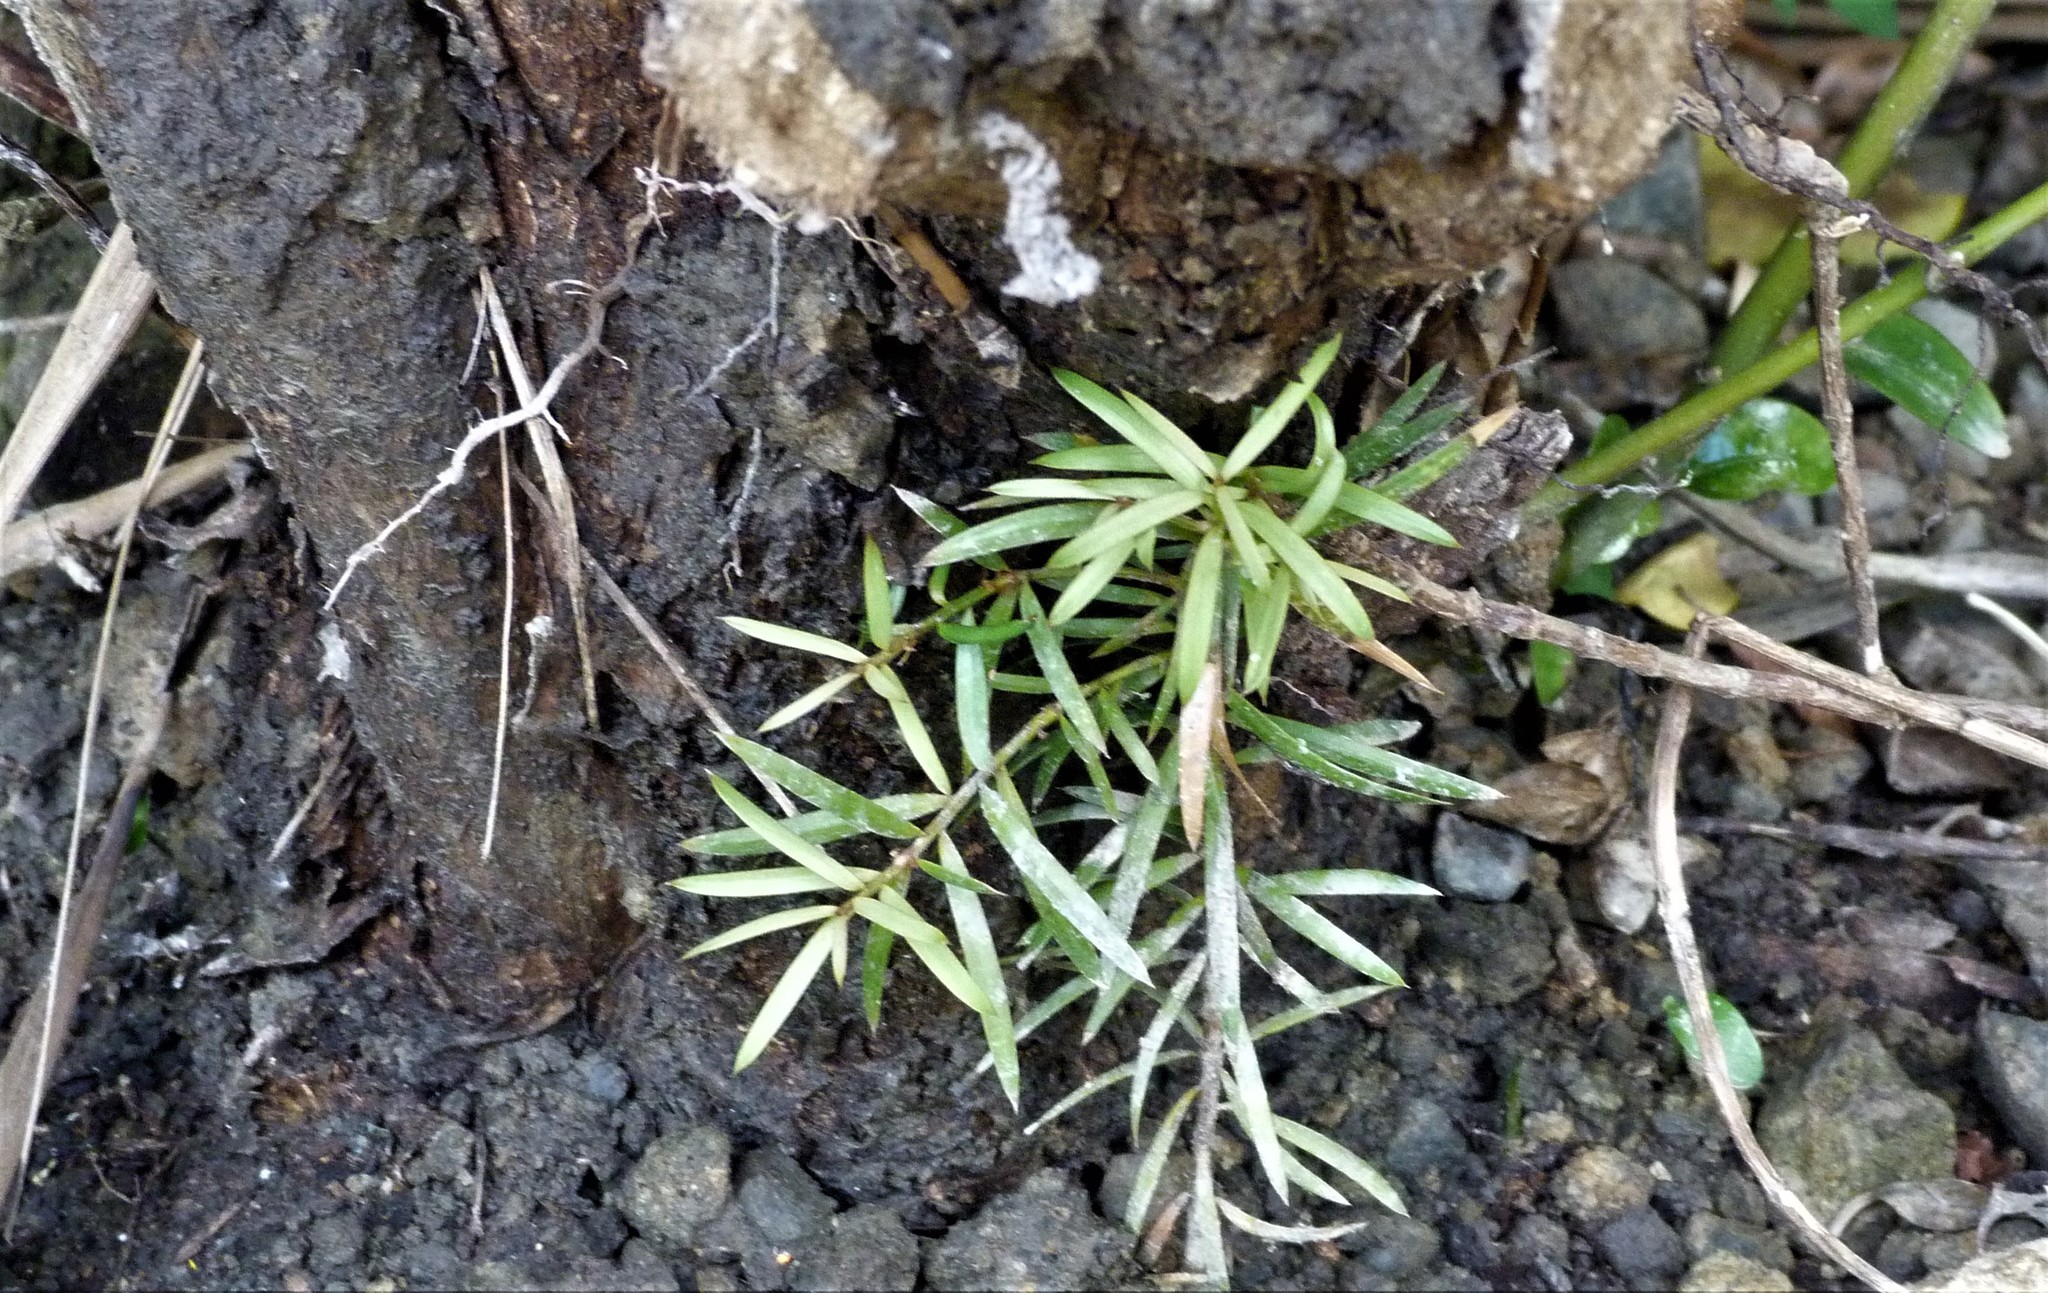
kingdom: Plantae
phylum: Tracheophyta
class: Pinopsida
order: Pinales
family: Podocarpaceae
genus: Podocarpus
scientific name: Podocarpus totara
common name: Totara
